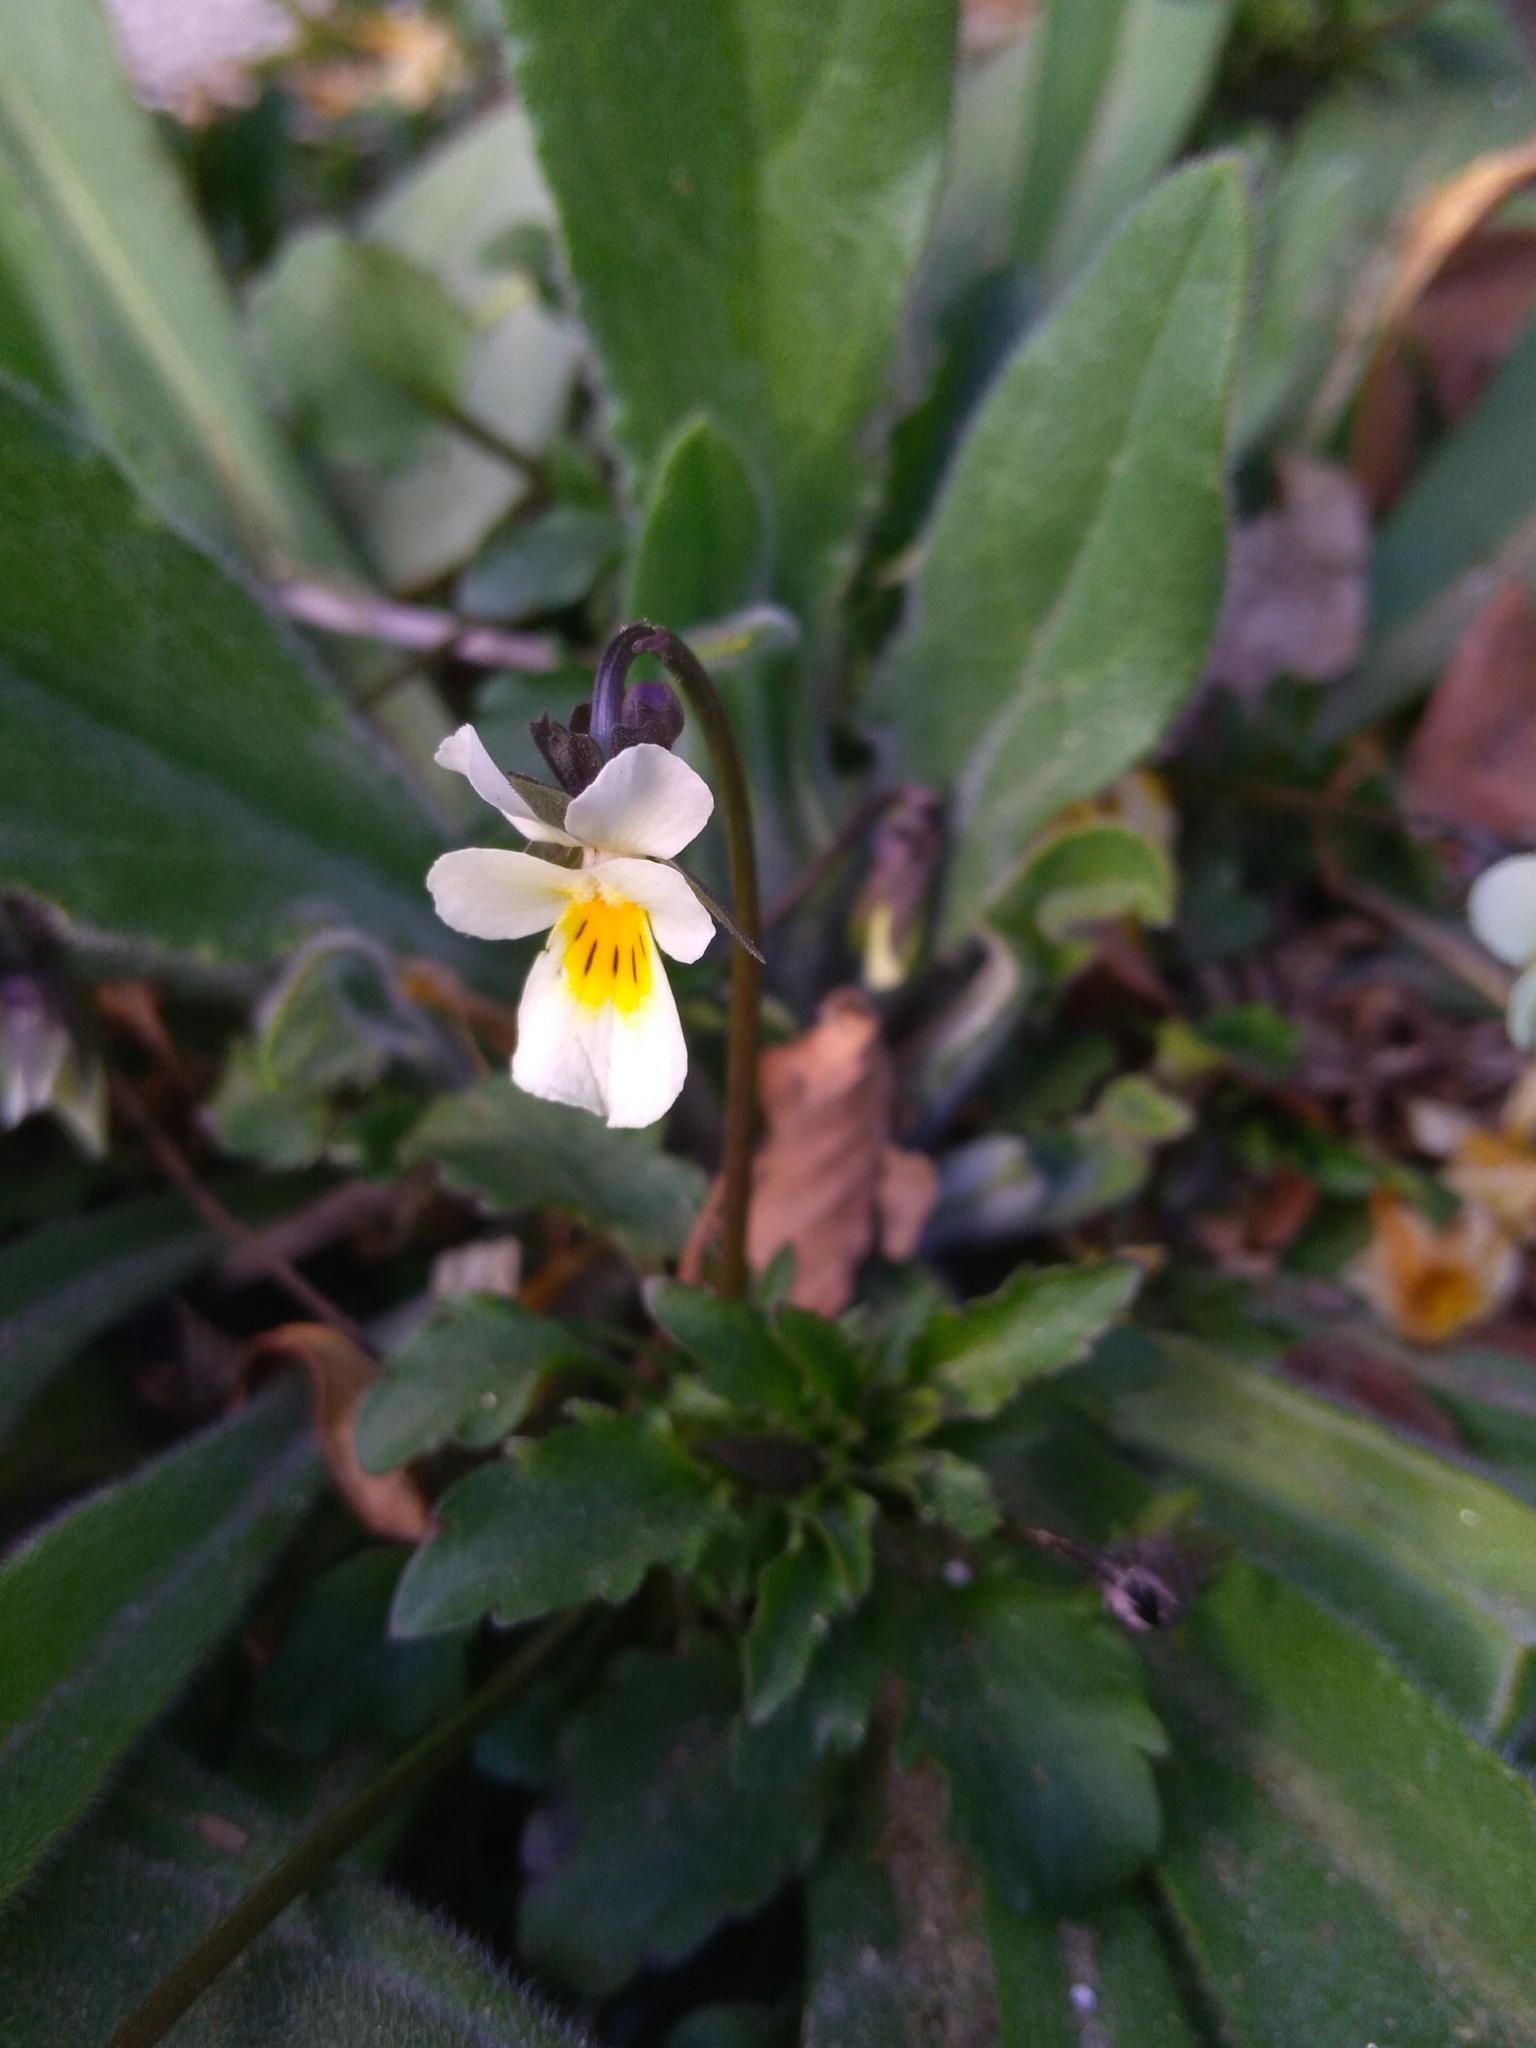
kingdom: Plantae
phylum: Tracheophyta
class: Magnoliopsida
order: Malpighiales
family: Violaceae
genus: Viola
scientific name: Viola arvensis
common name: Field pansy
